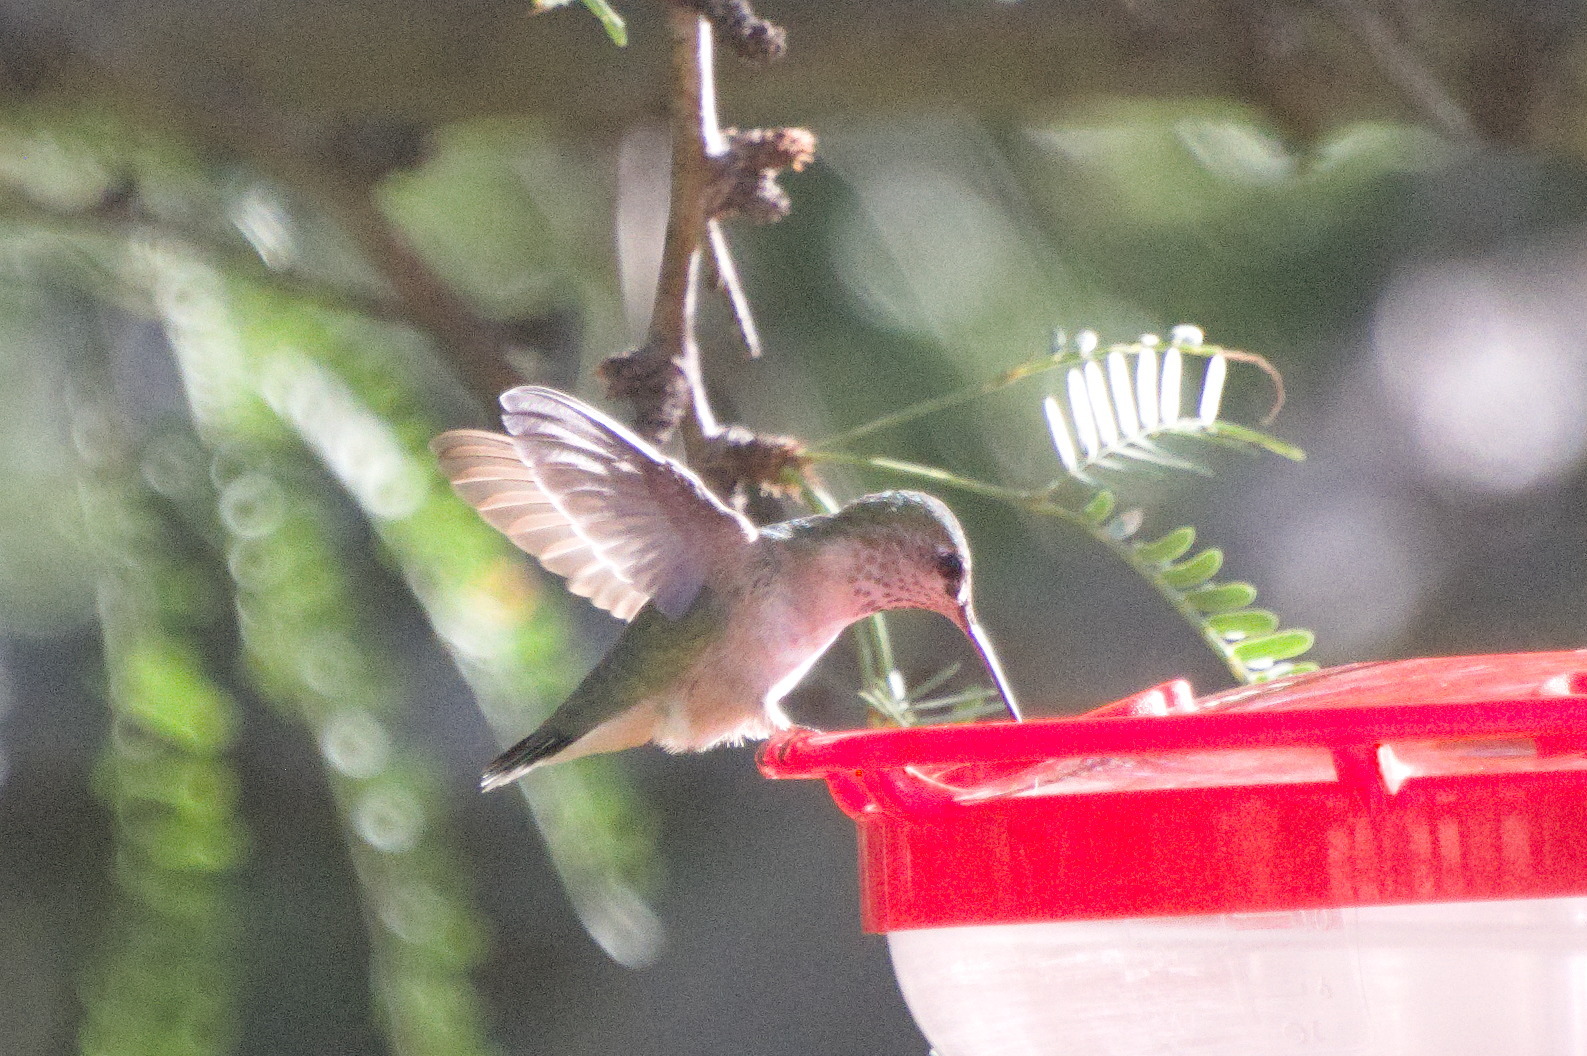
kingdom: Animalia
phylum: Chordata
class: Aves
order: Apodiformes
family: Trochilidae
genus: Selasphorus
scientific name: Selasphorus calliope
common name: Calliope hummingbird
